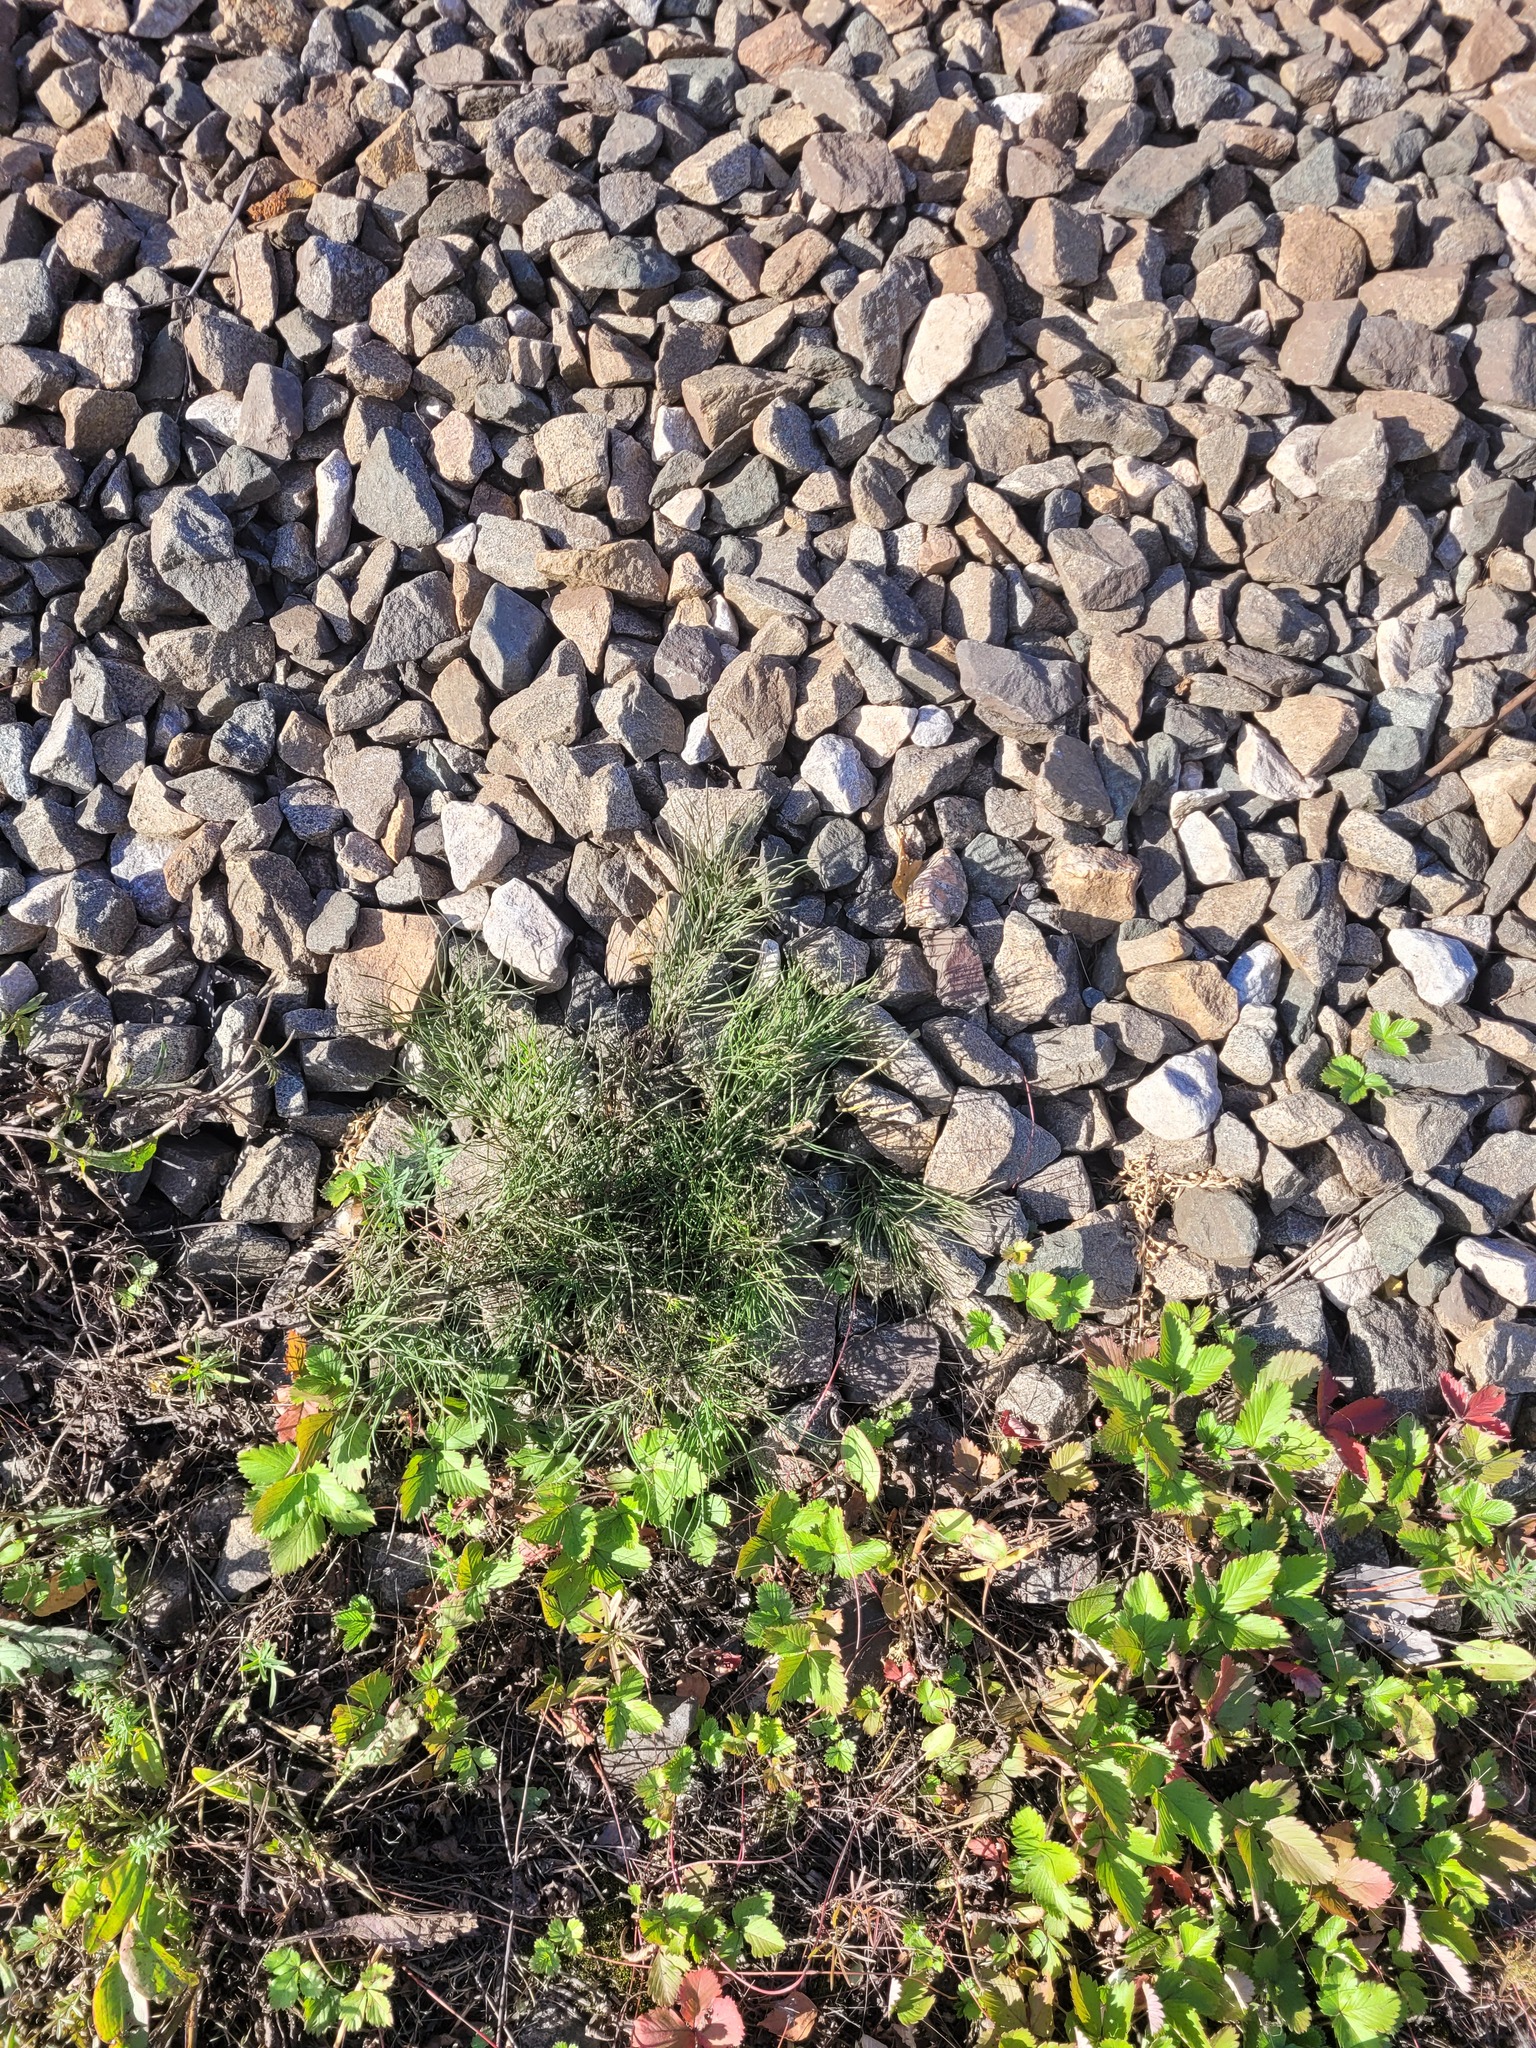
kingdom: Plantae
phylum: Tracheophyta
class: Pinopsida
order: Pinales
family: Pinaceae
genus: Pinus
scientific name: Pinus sylvestris
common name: Scots pine
